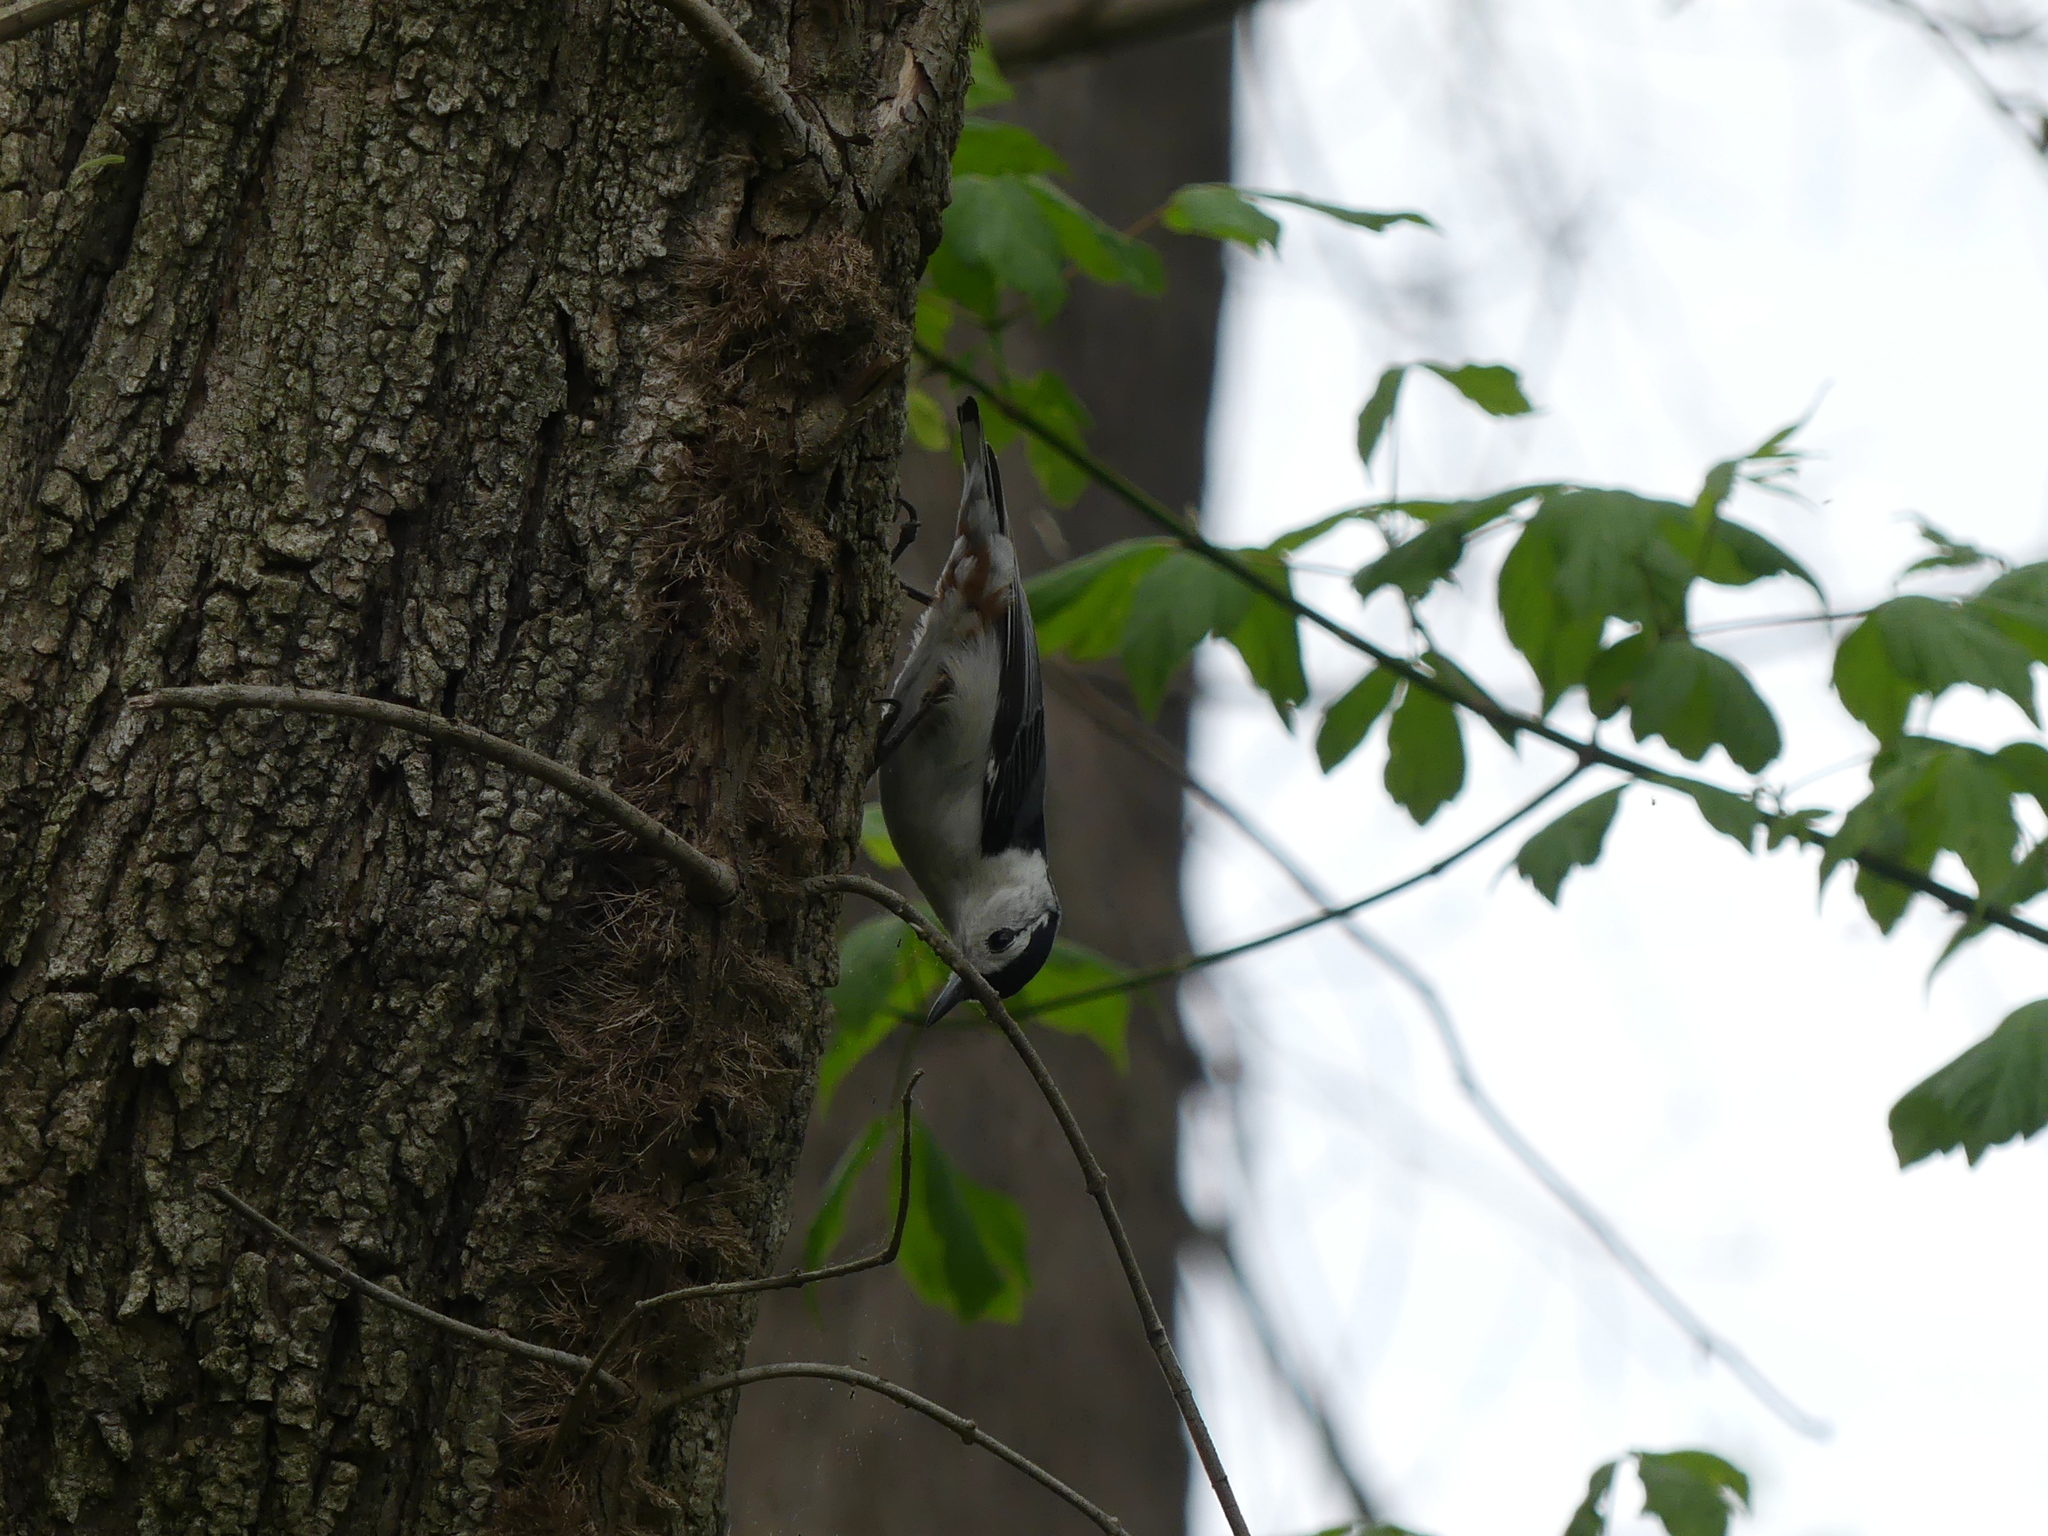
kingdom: Animalia
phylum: Chordata
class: Aves
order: Passeriformes
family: Sittidae
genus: Sitta
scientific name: Sitta carolinensis
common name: White-breasted nuthatch
